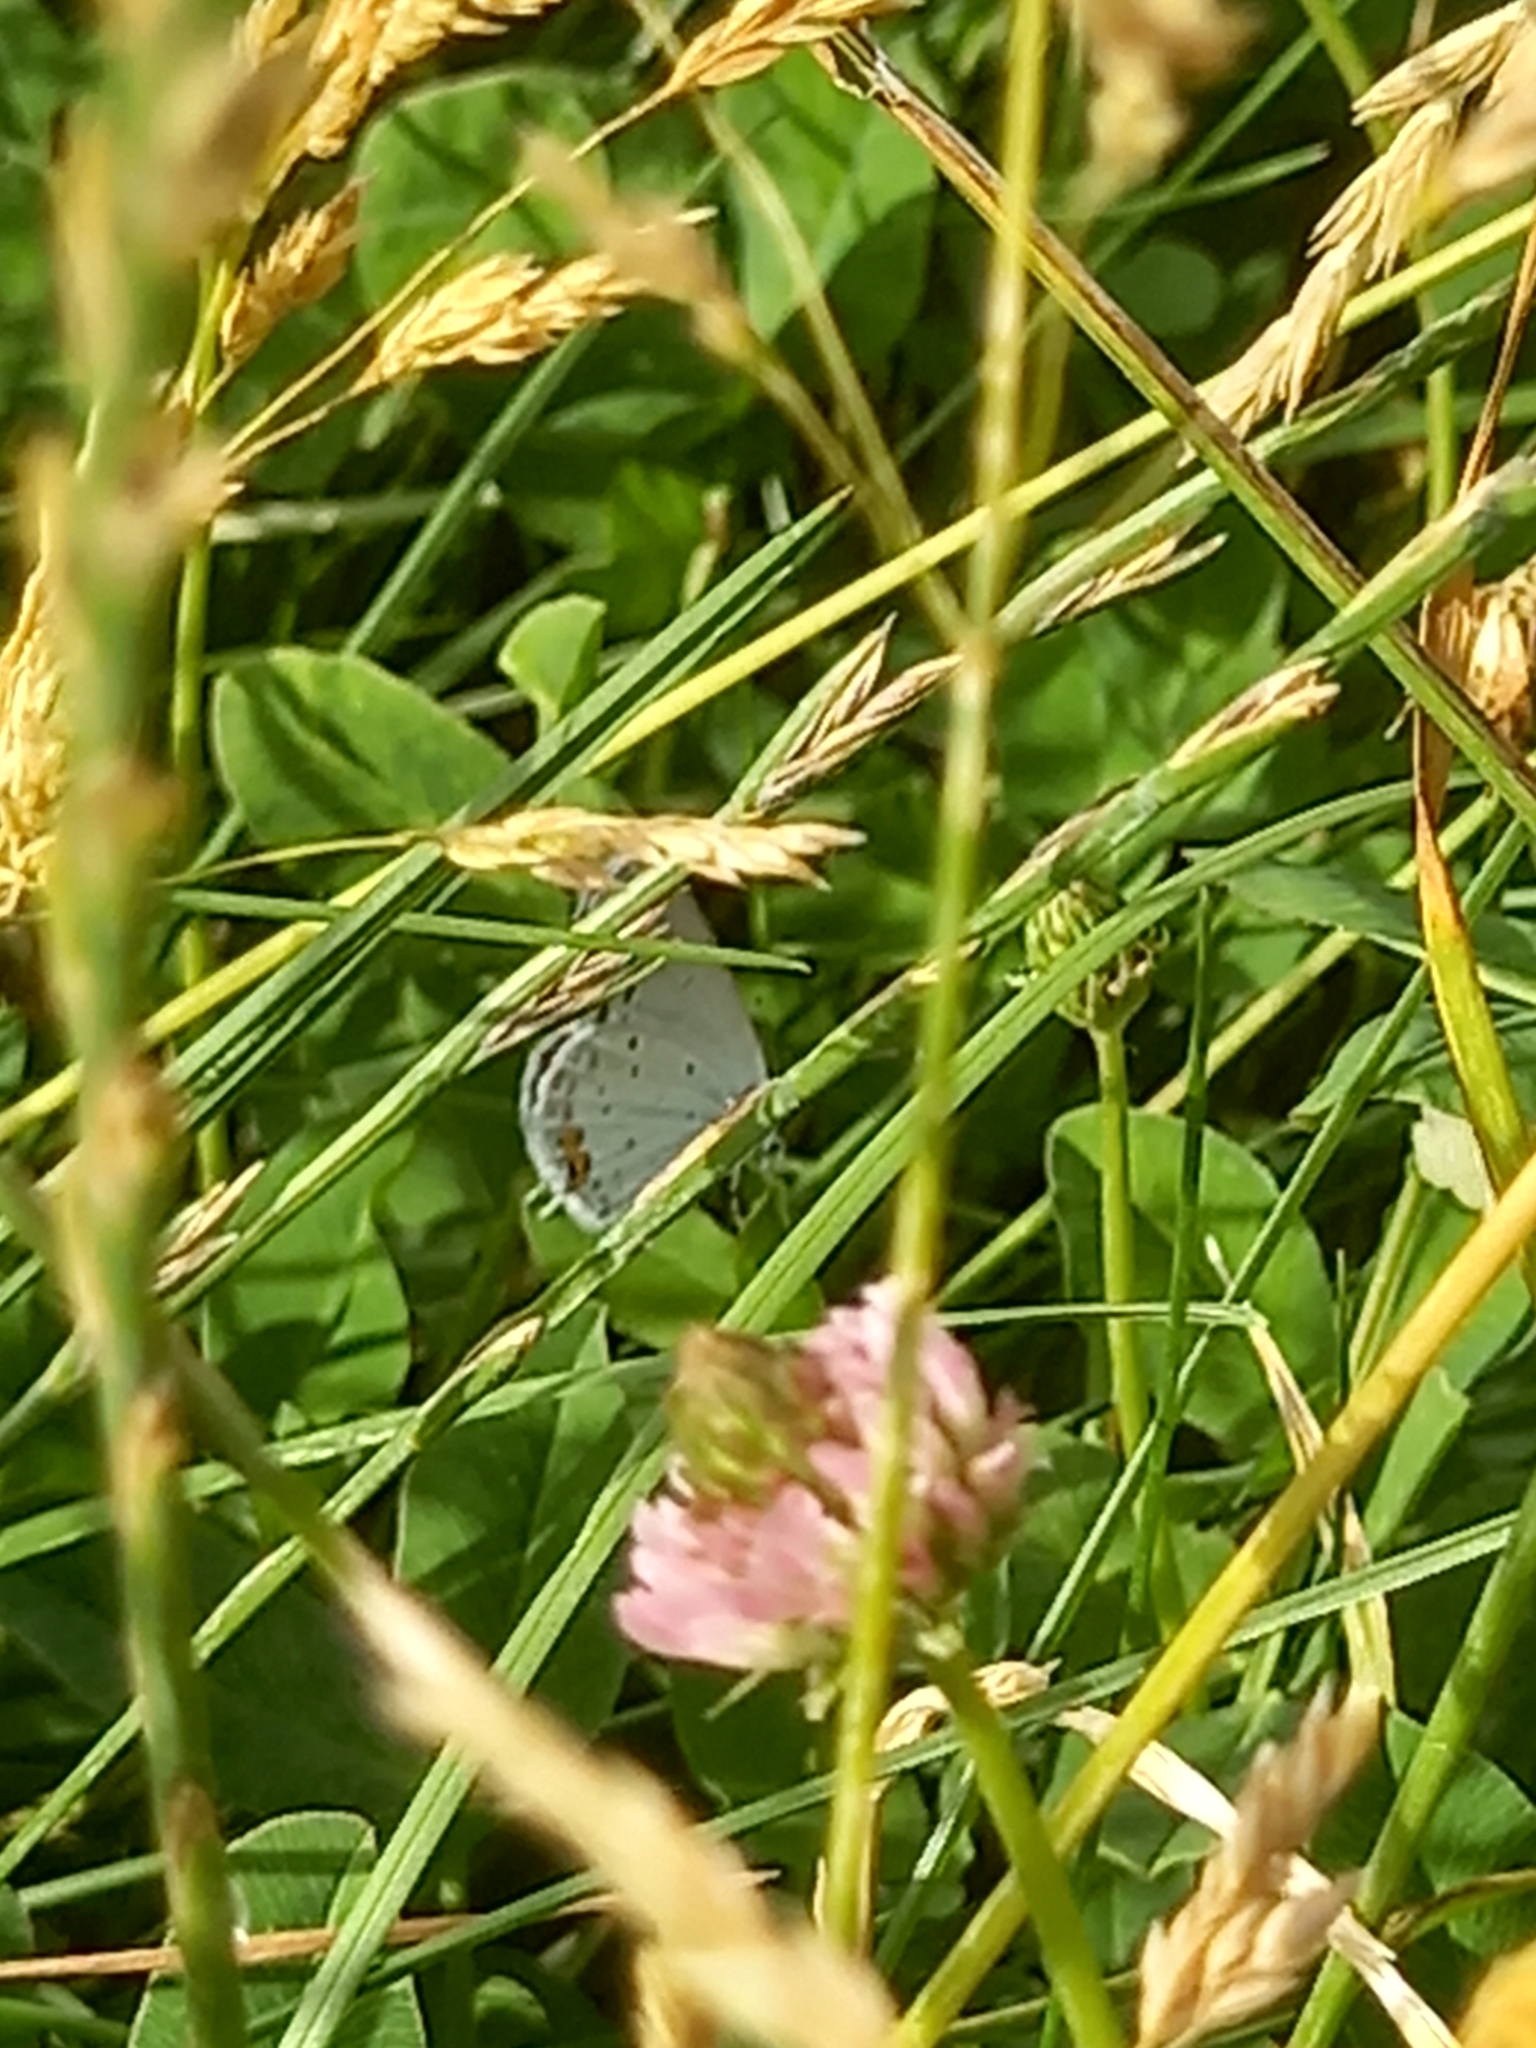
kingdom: Animalia
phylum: Arthropoda
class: Insecta
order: Lepidoptera
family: Lycaenidae
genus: Elkalyce
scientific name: Elkalyce argiades
